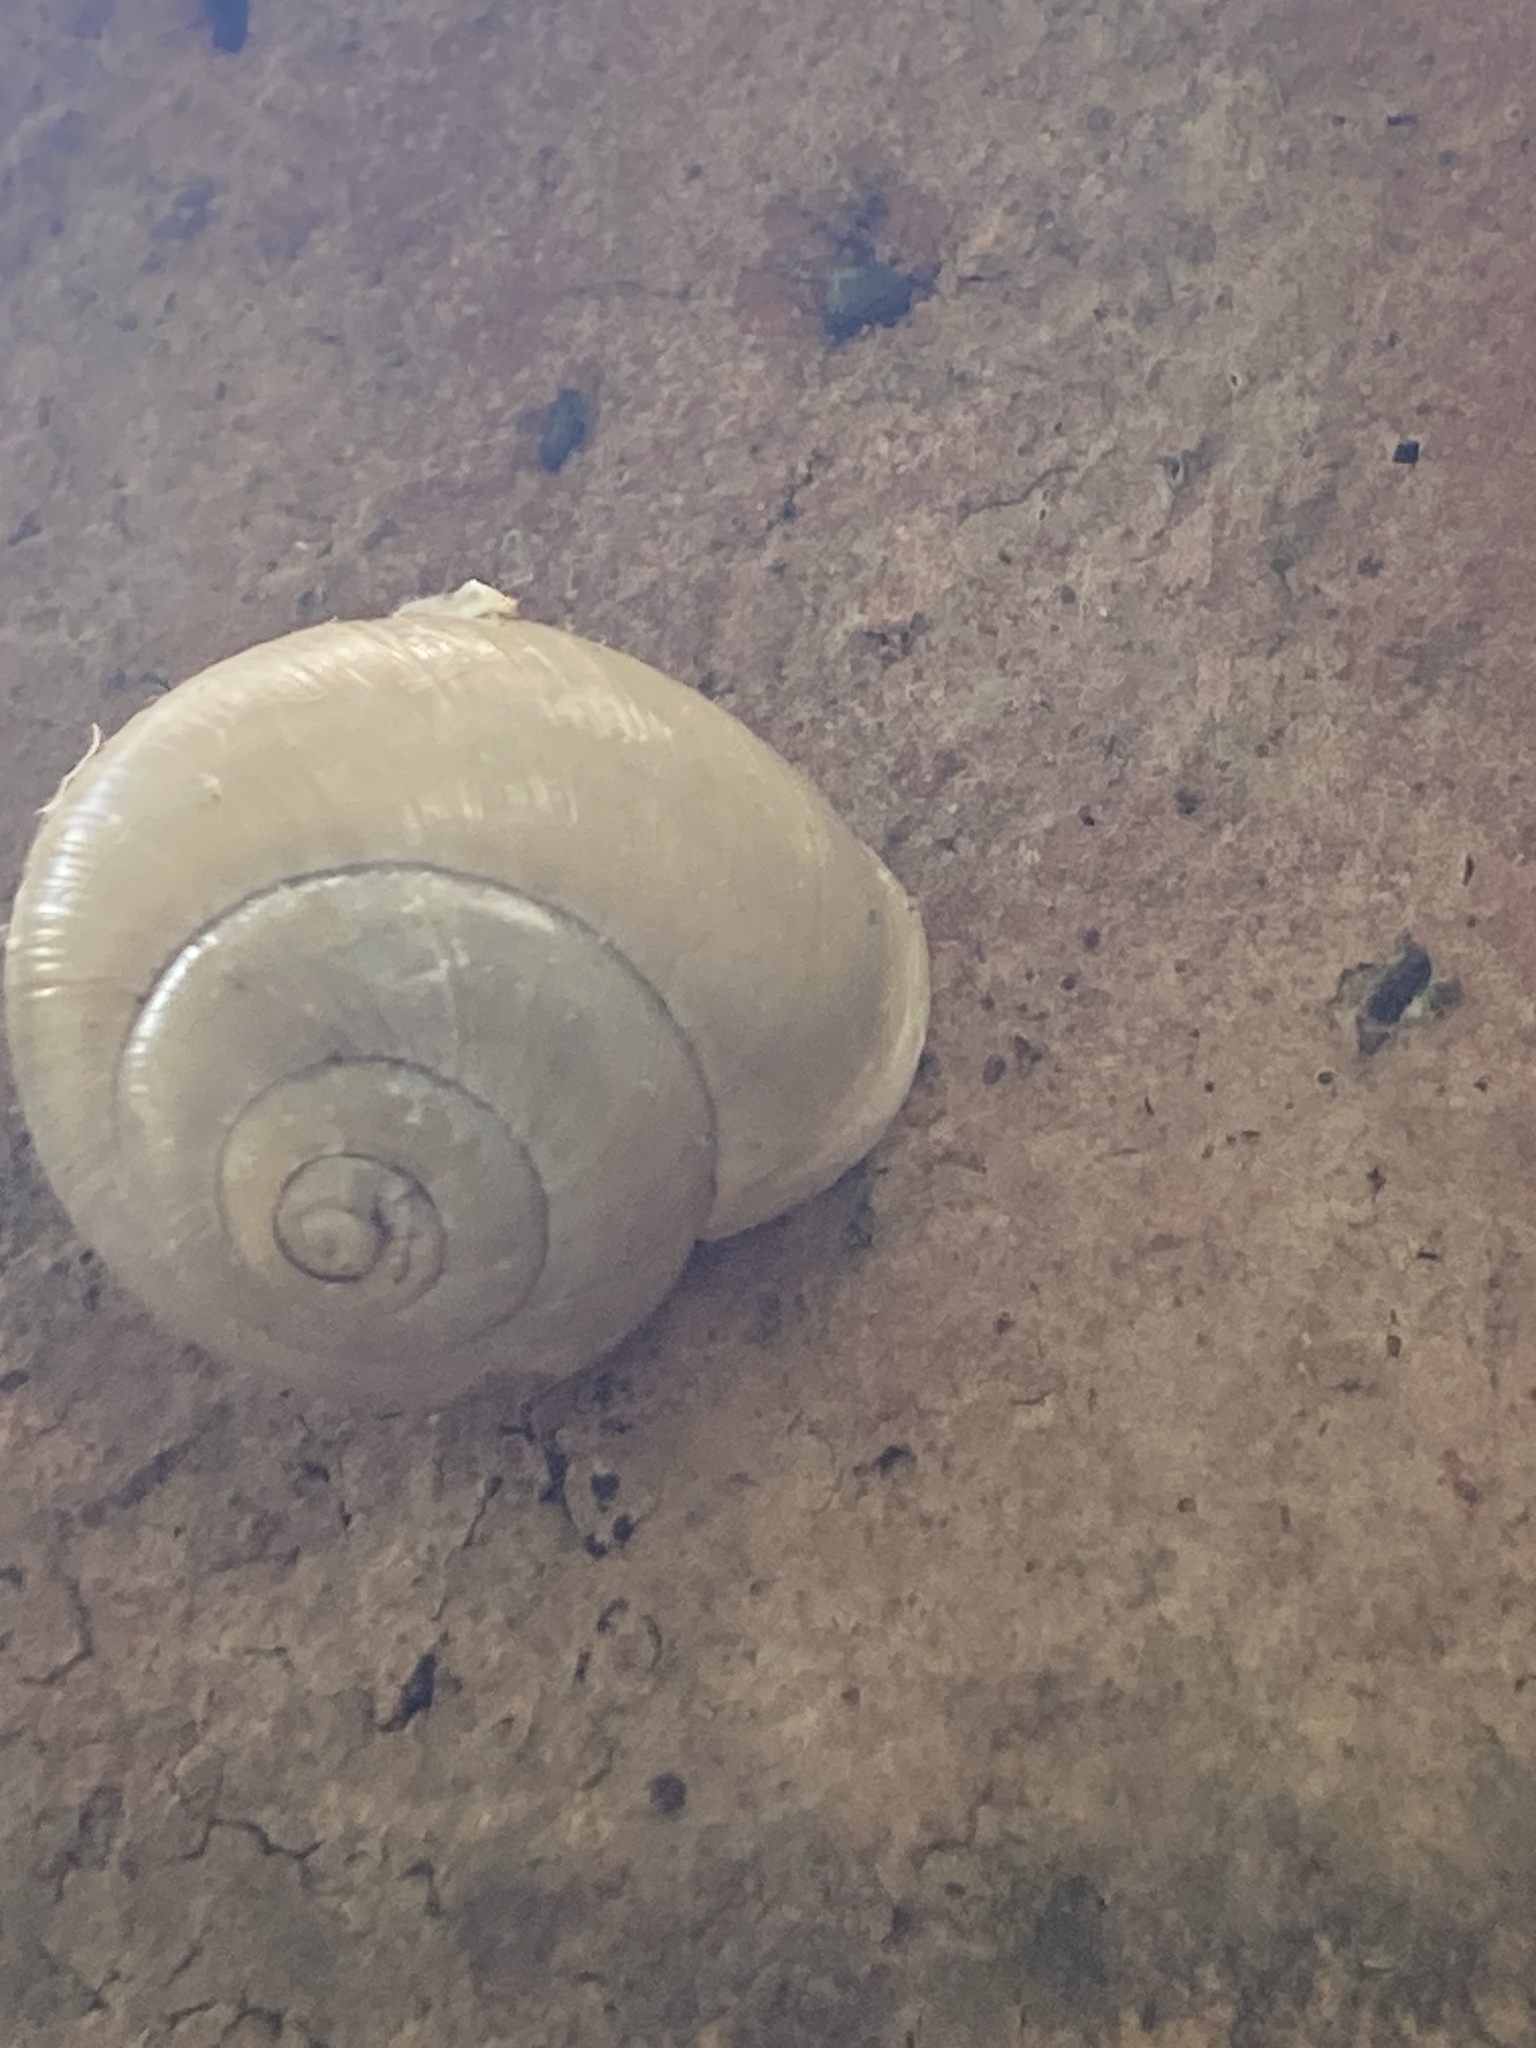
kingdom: Animalia
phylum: Mollusca
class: Gastropoda
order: Stylommatophora
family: Helicidae
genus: Cepaea
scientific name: Cepaea hortensis
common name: White-lip gardensnail
